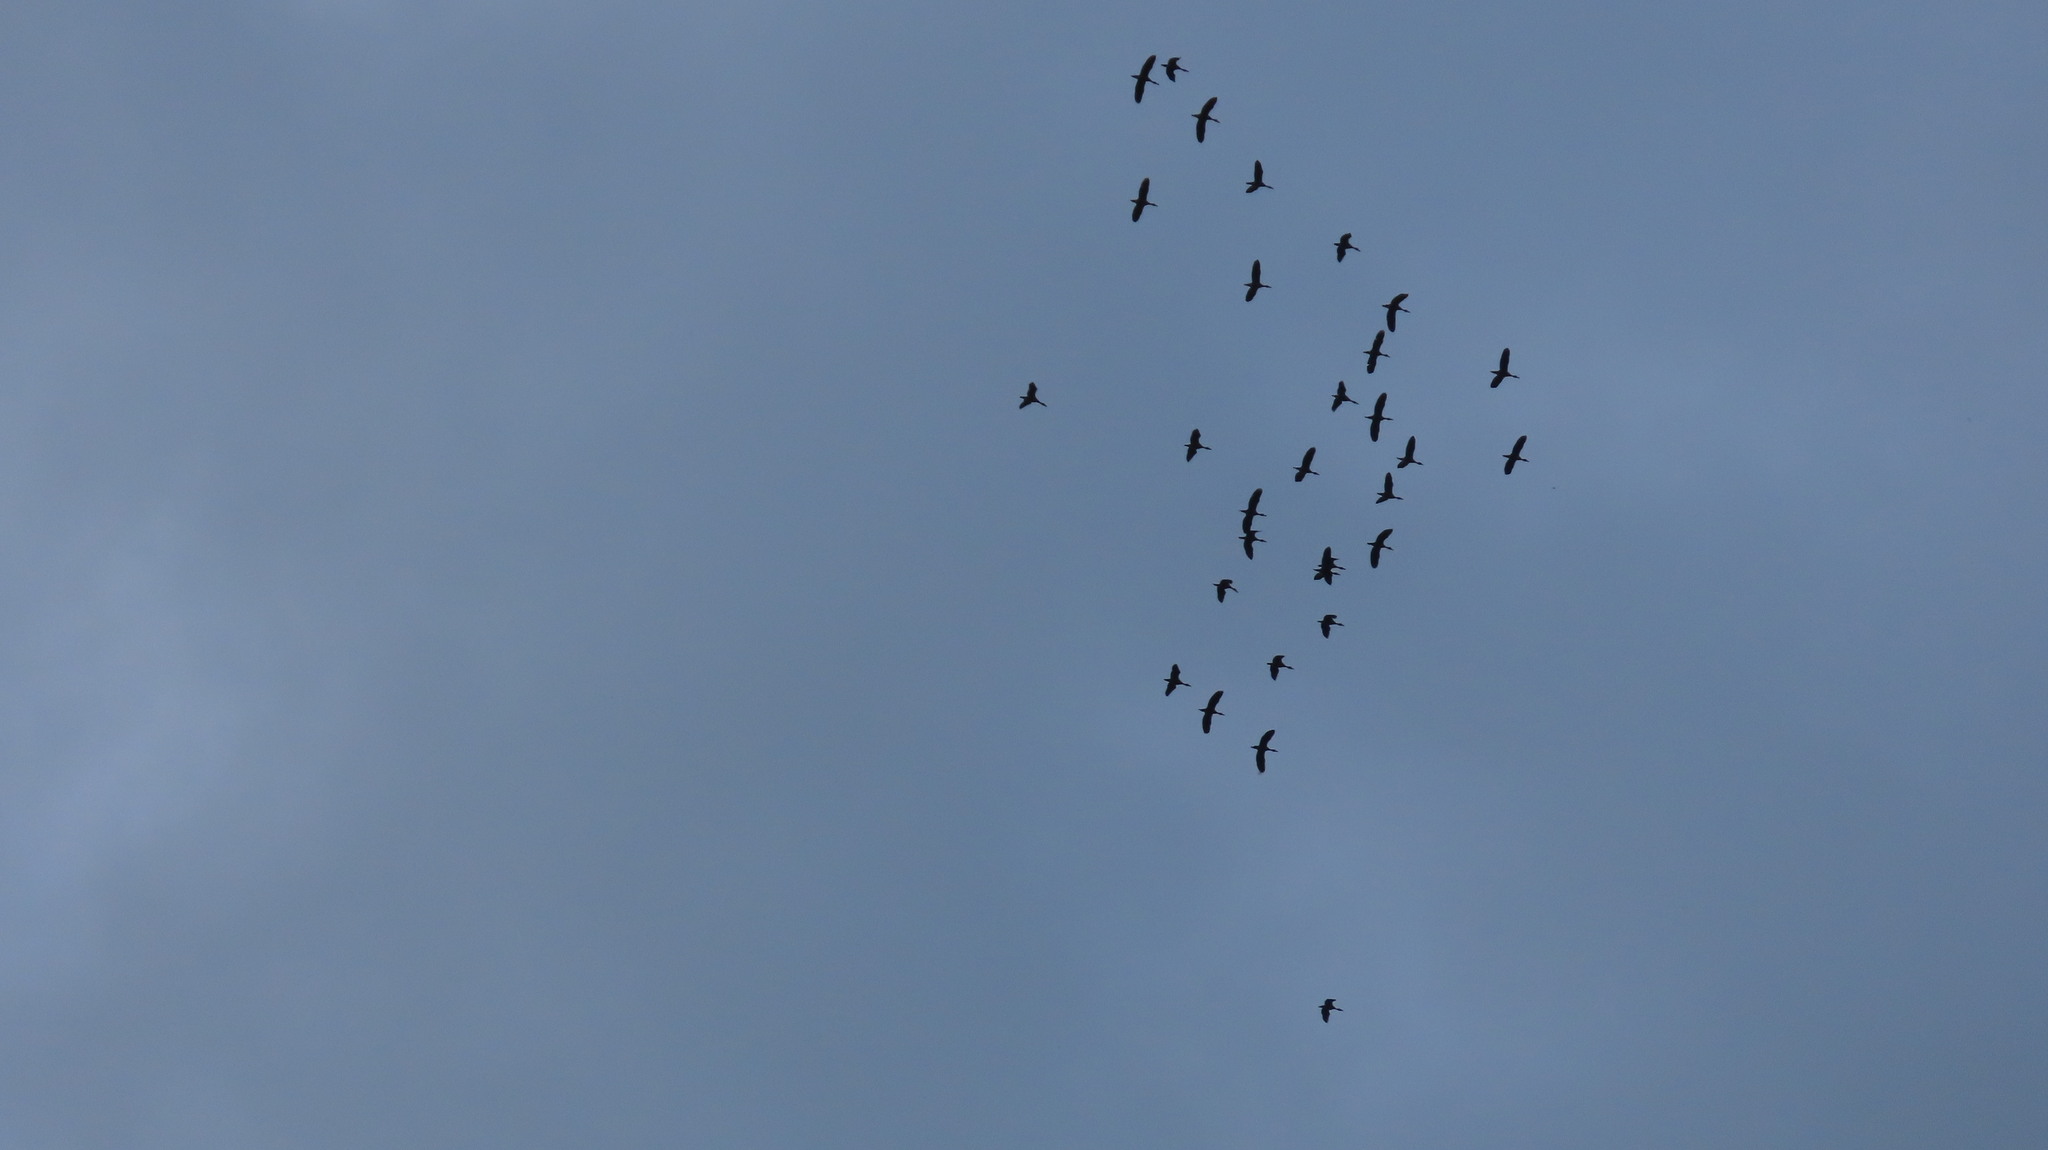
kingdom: Animalia
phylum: Chordata
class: Aves
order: Anseriformes
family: Anatidae
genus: Dendrocygna
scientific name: Dendrocygna javanica
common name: Lesser whistling-duck
